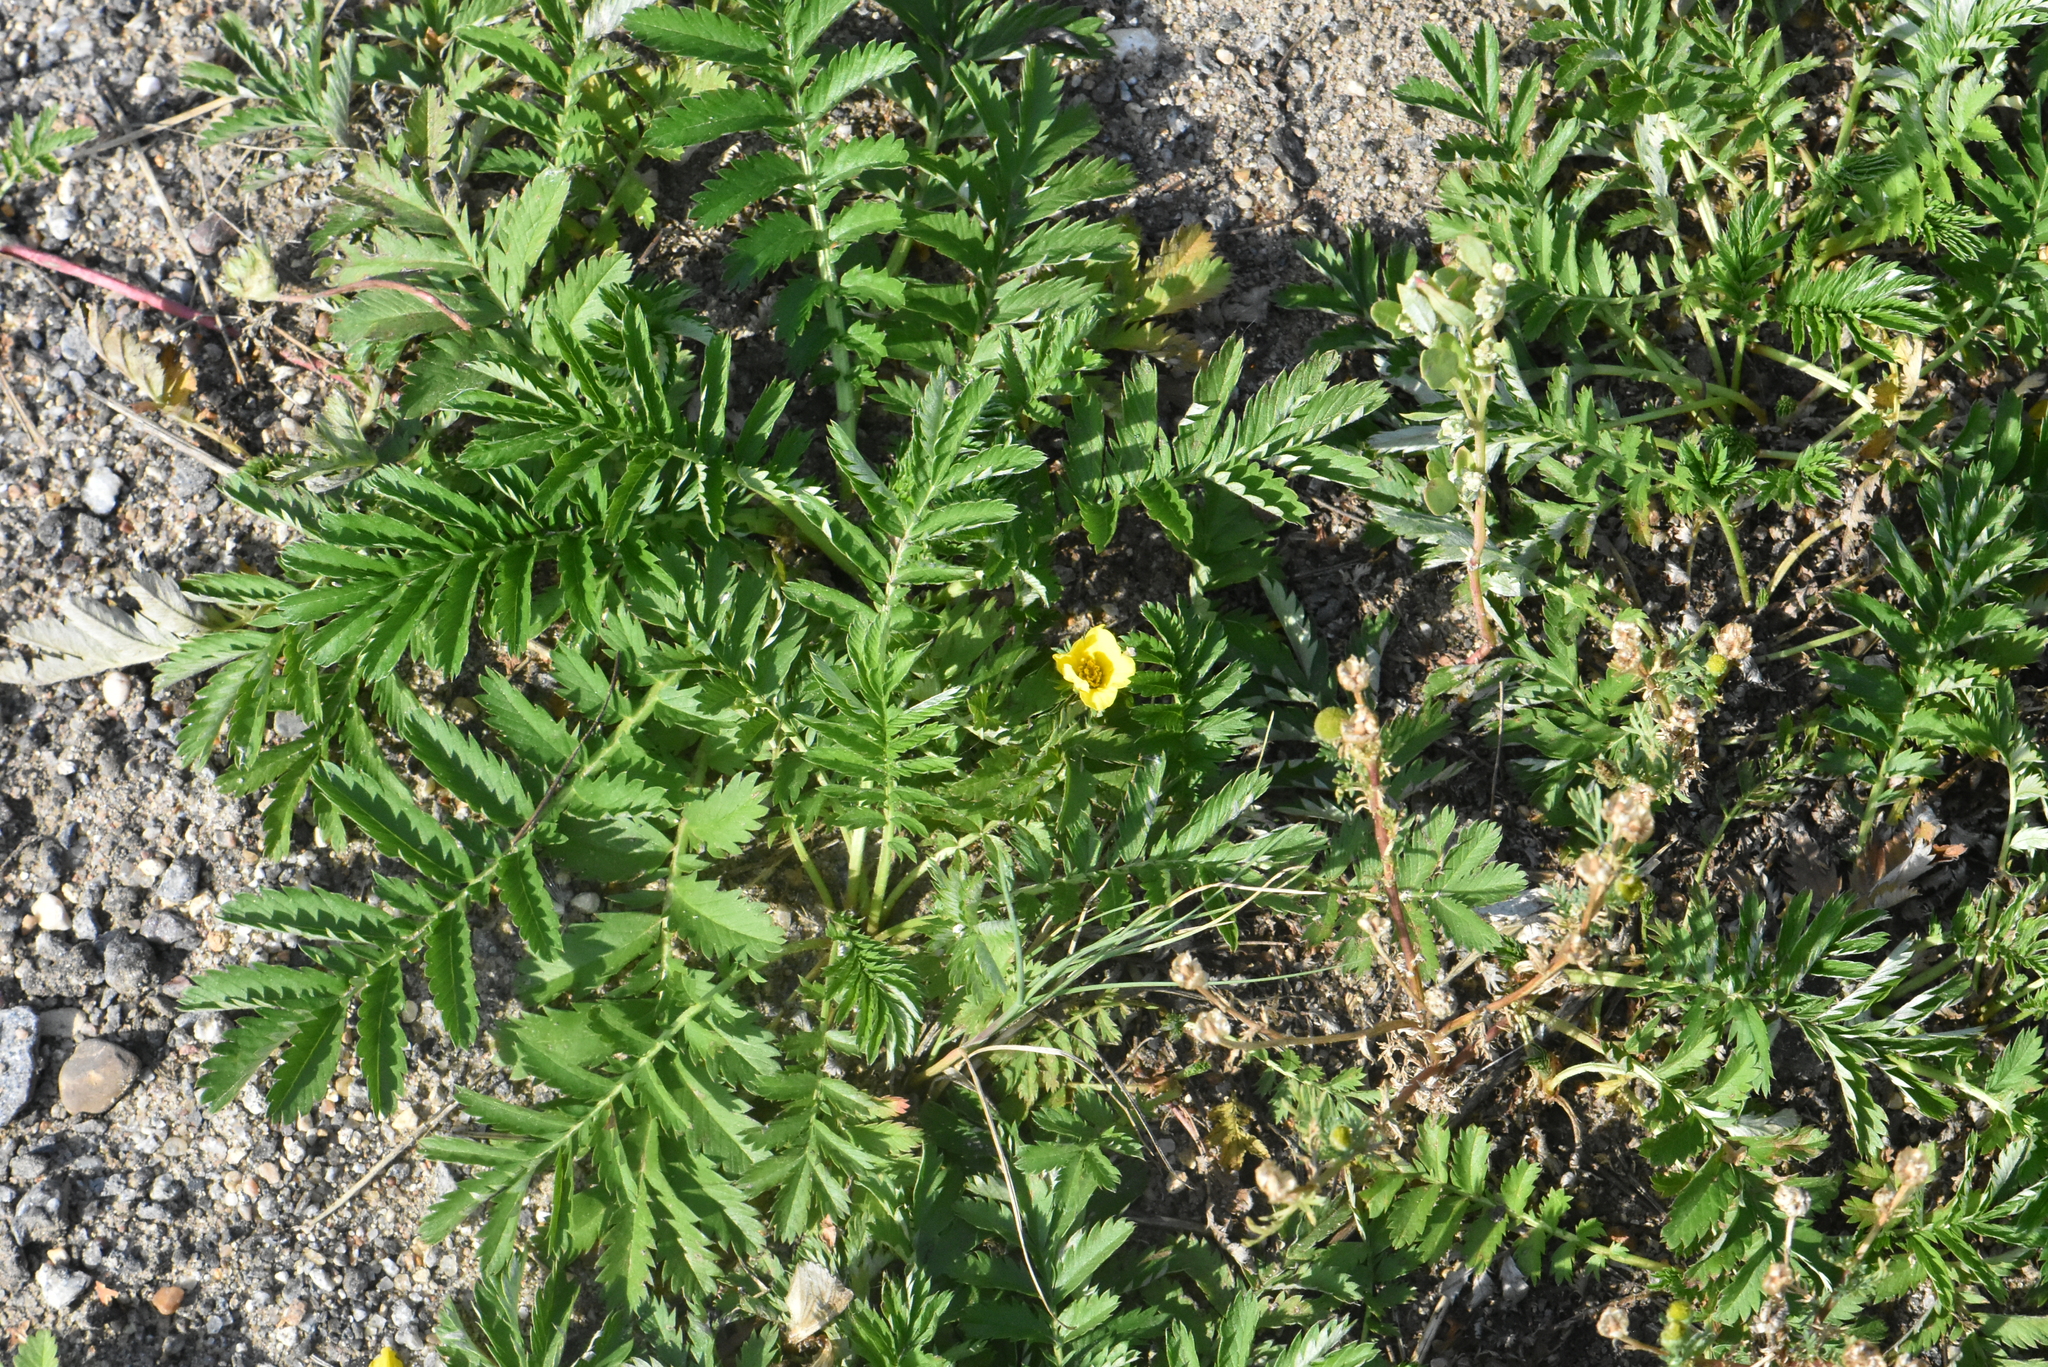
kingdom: Plantae
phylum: Tracheophyta
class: Magnoliopsida
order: Rosales
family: Rosaceae
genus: Argentina
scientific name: Argentina anserina
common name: Common silverweed
